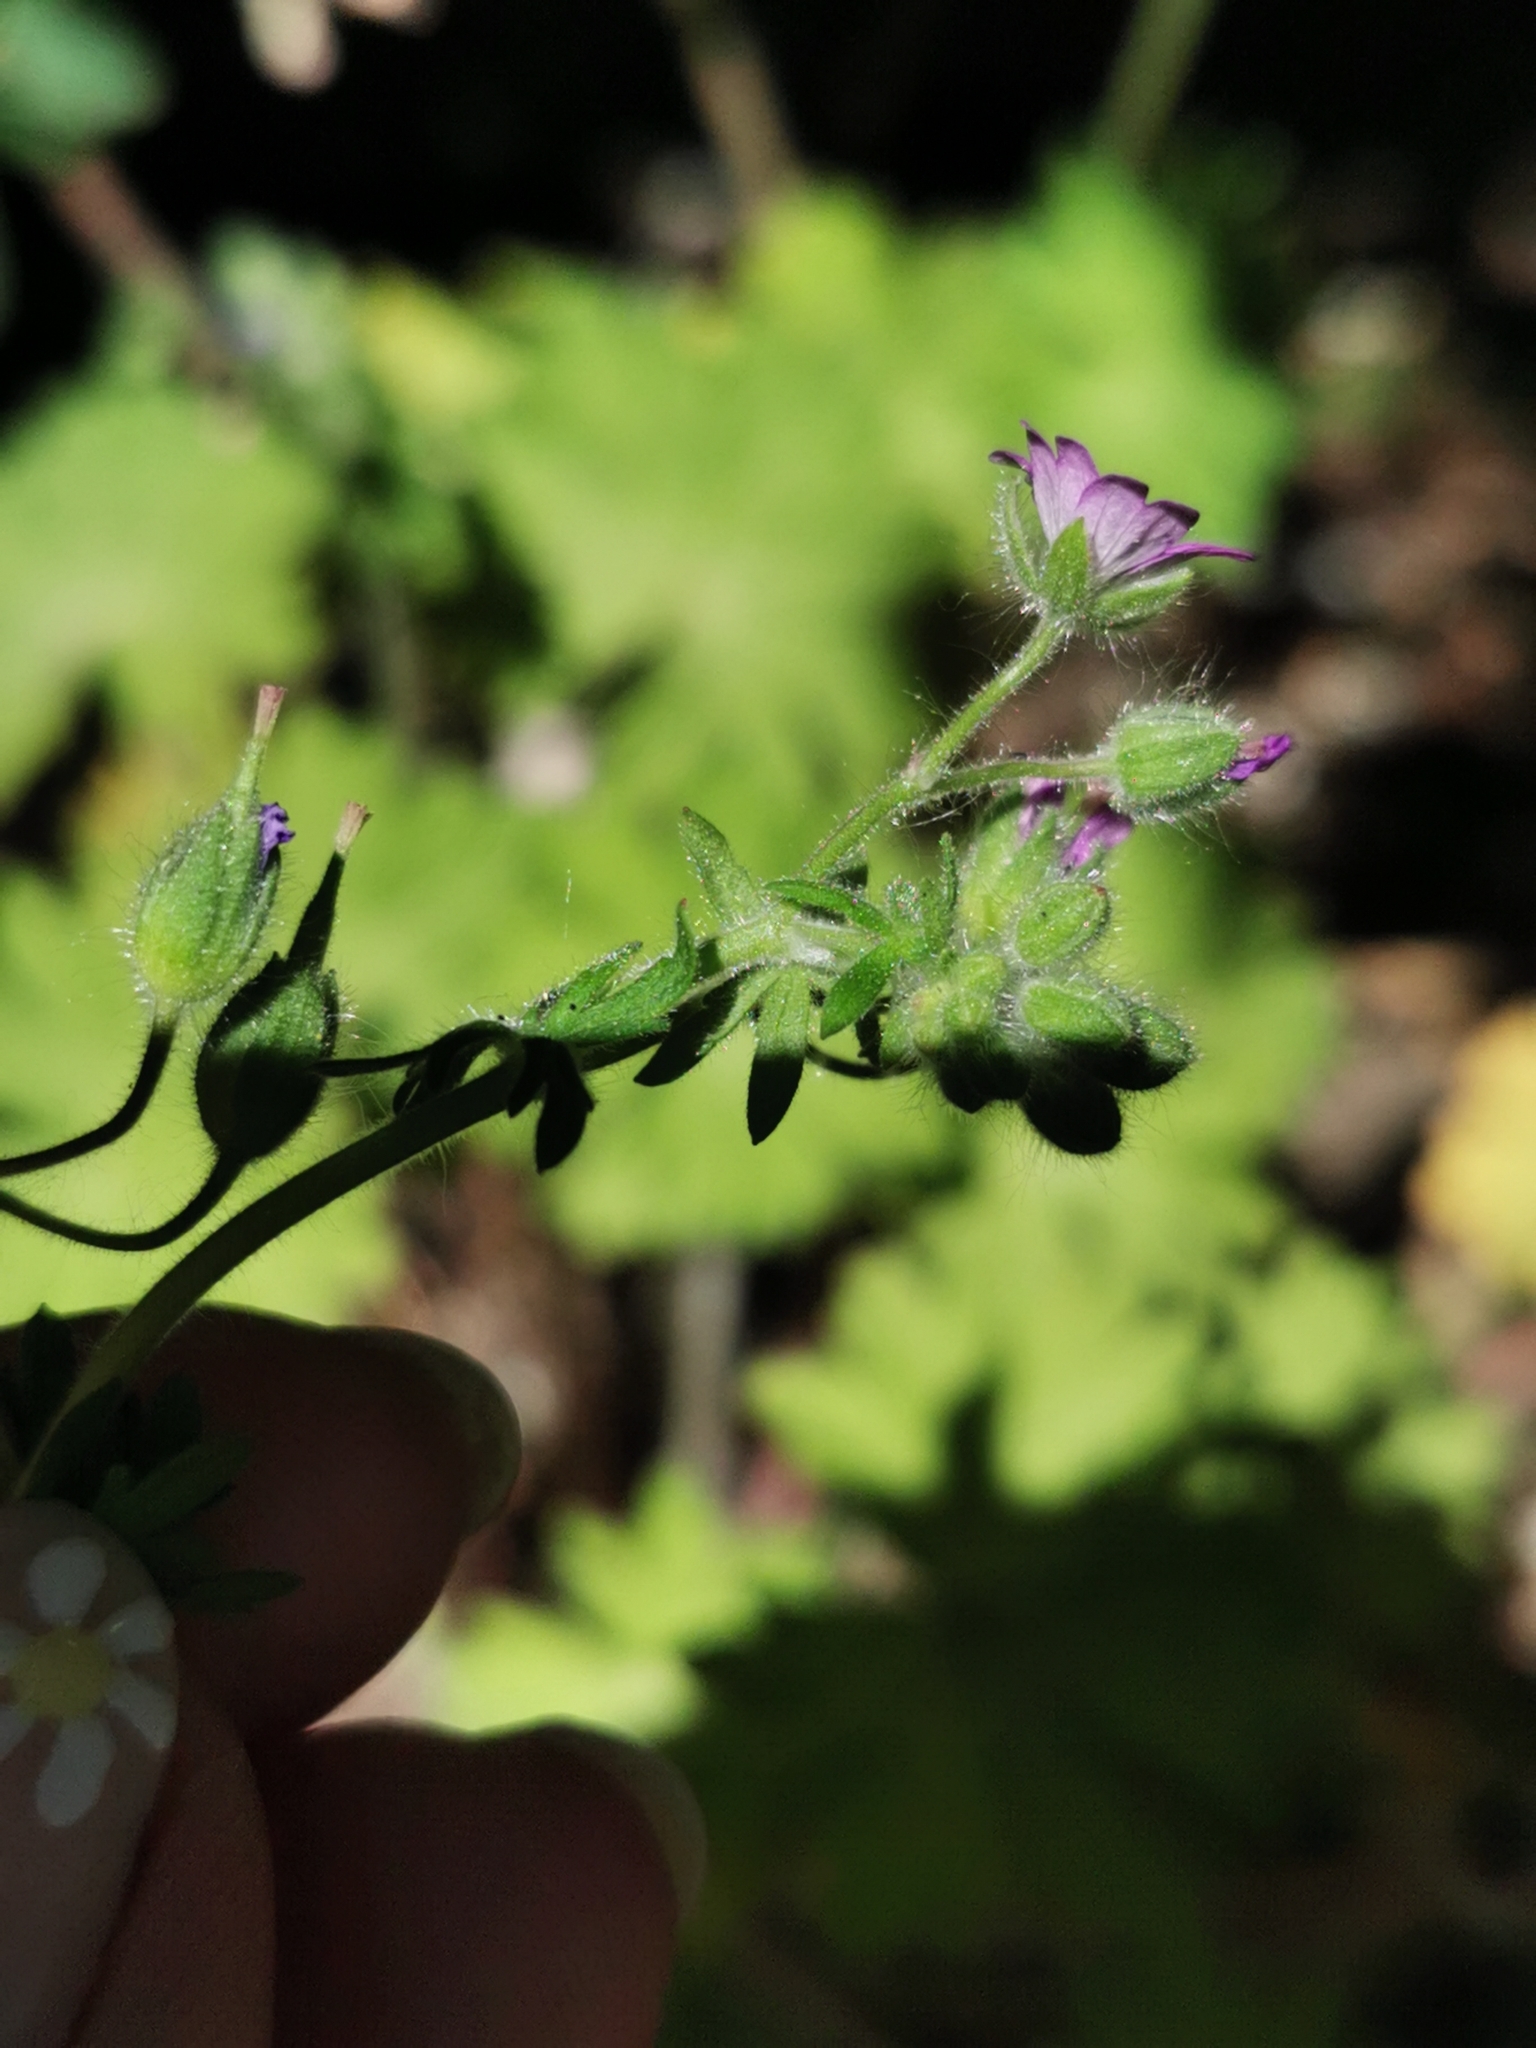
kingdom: Plantae
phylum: Tracheophyta
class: Magnoliopsida
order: Geraniales
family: Geraniaceae
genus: Geranium
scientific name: Geranium molle
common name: Dove's-foot crane's-bill
